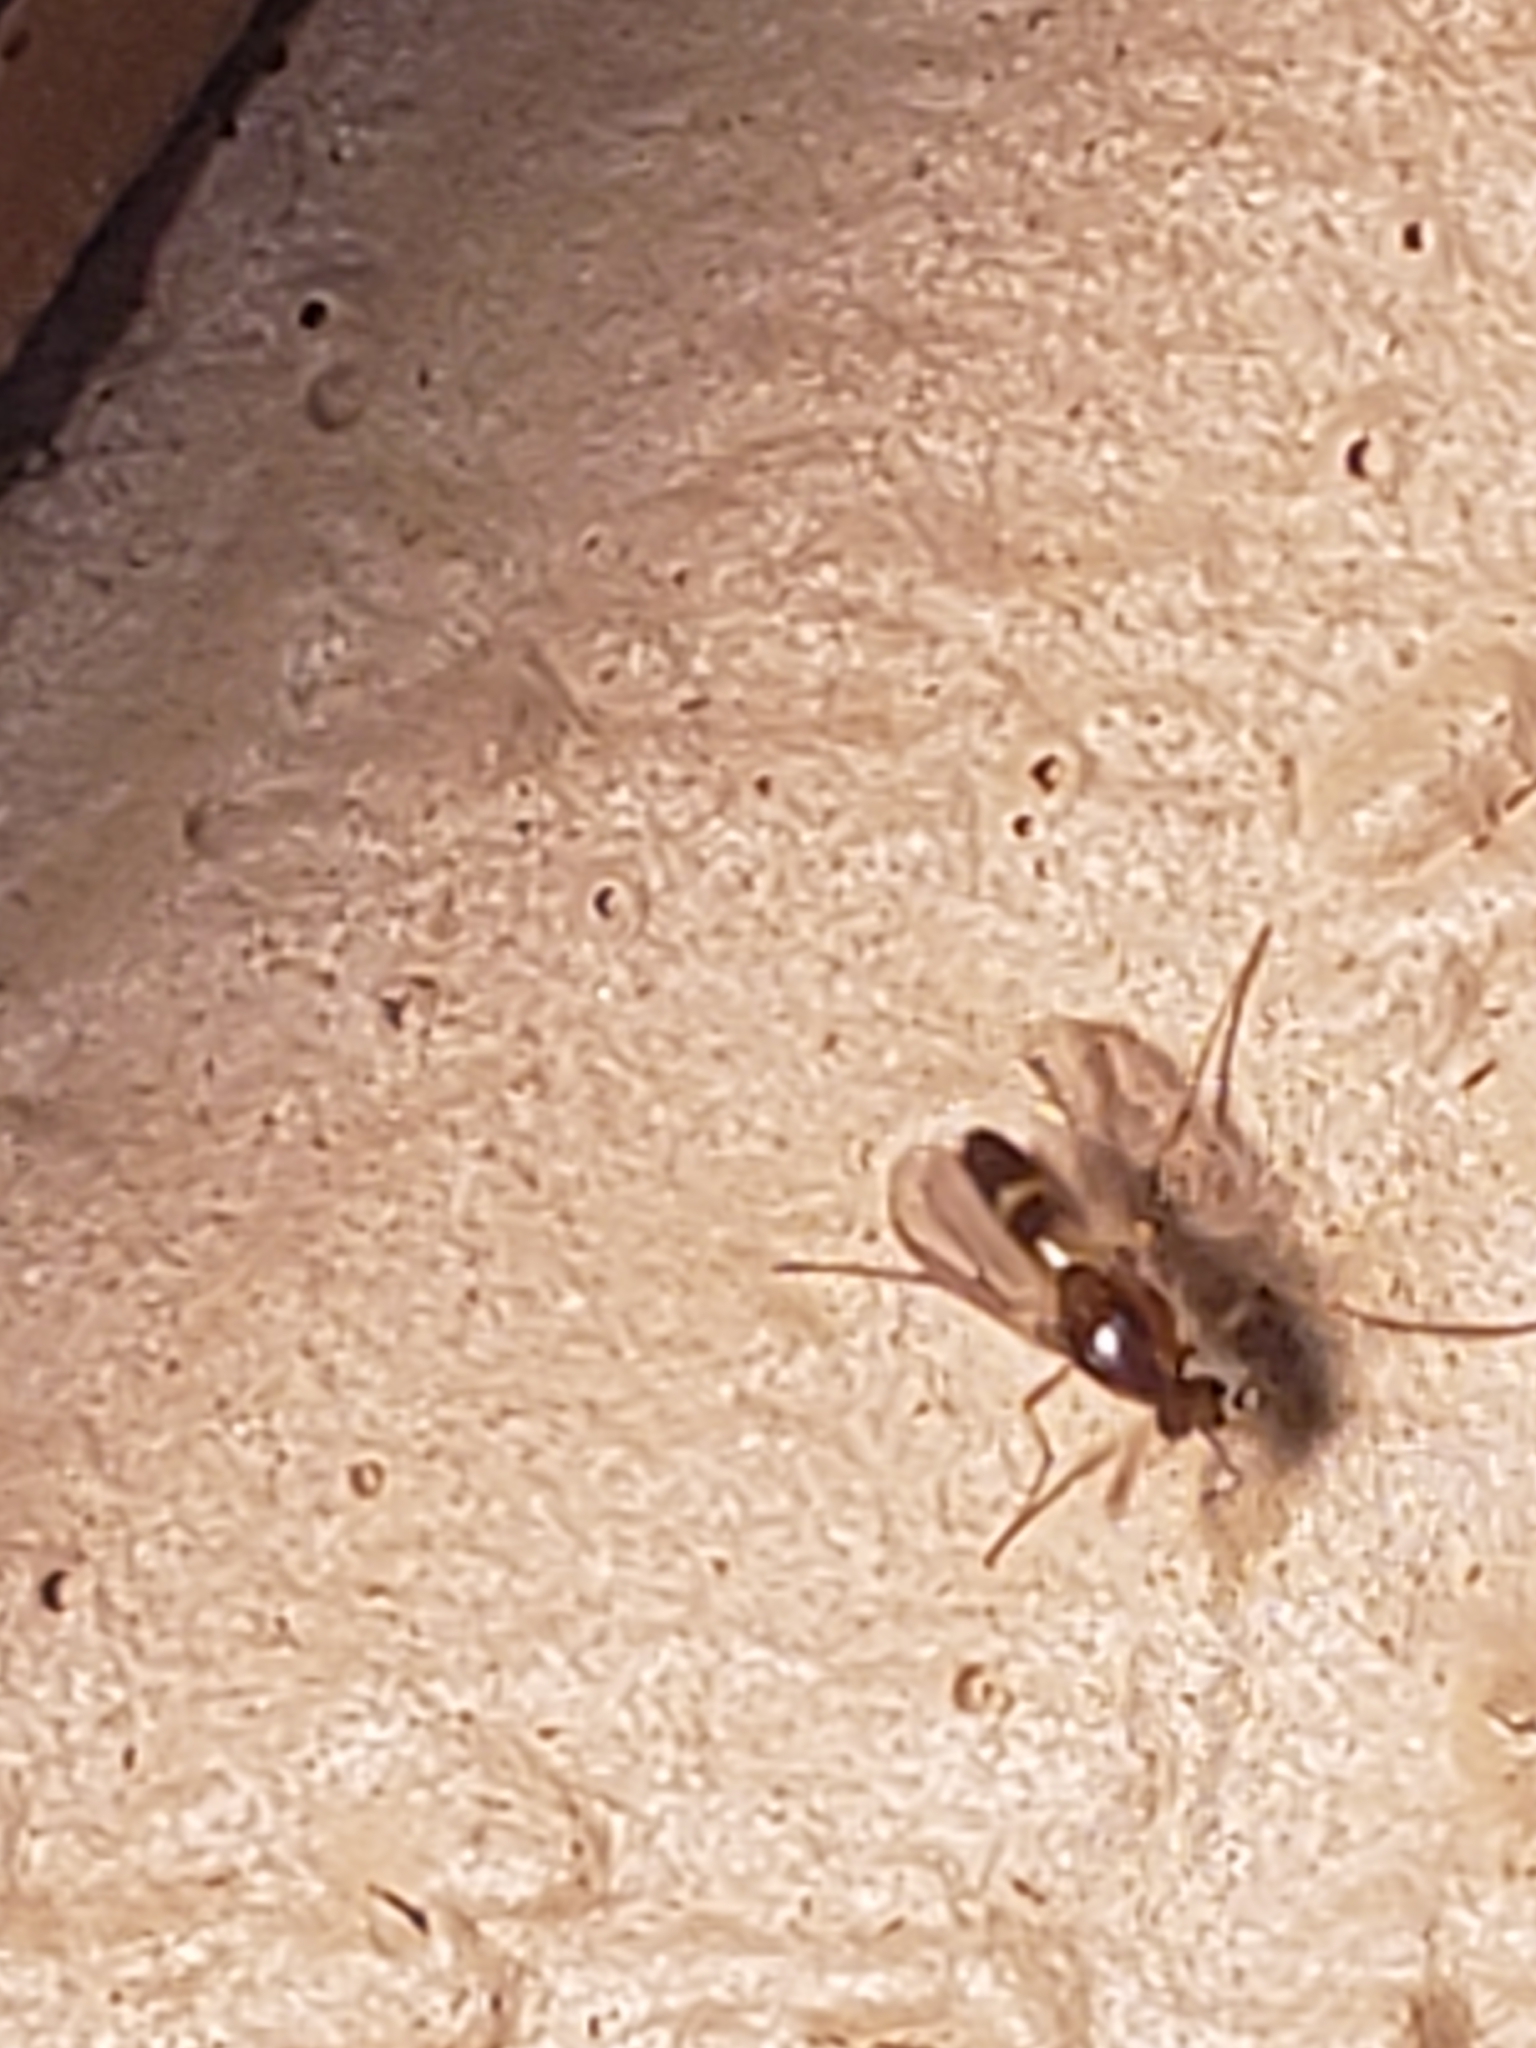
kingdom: Animalia
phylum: Arthropoda
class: Insecta
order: Diptera
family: Chironomidae
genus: Cricotopus
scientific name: Cricotopus
